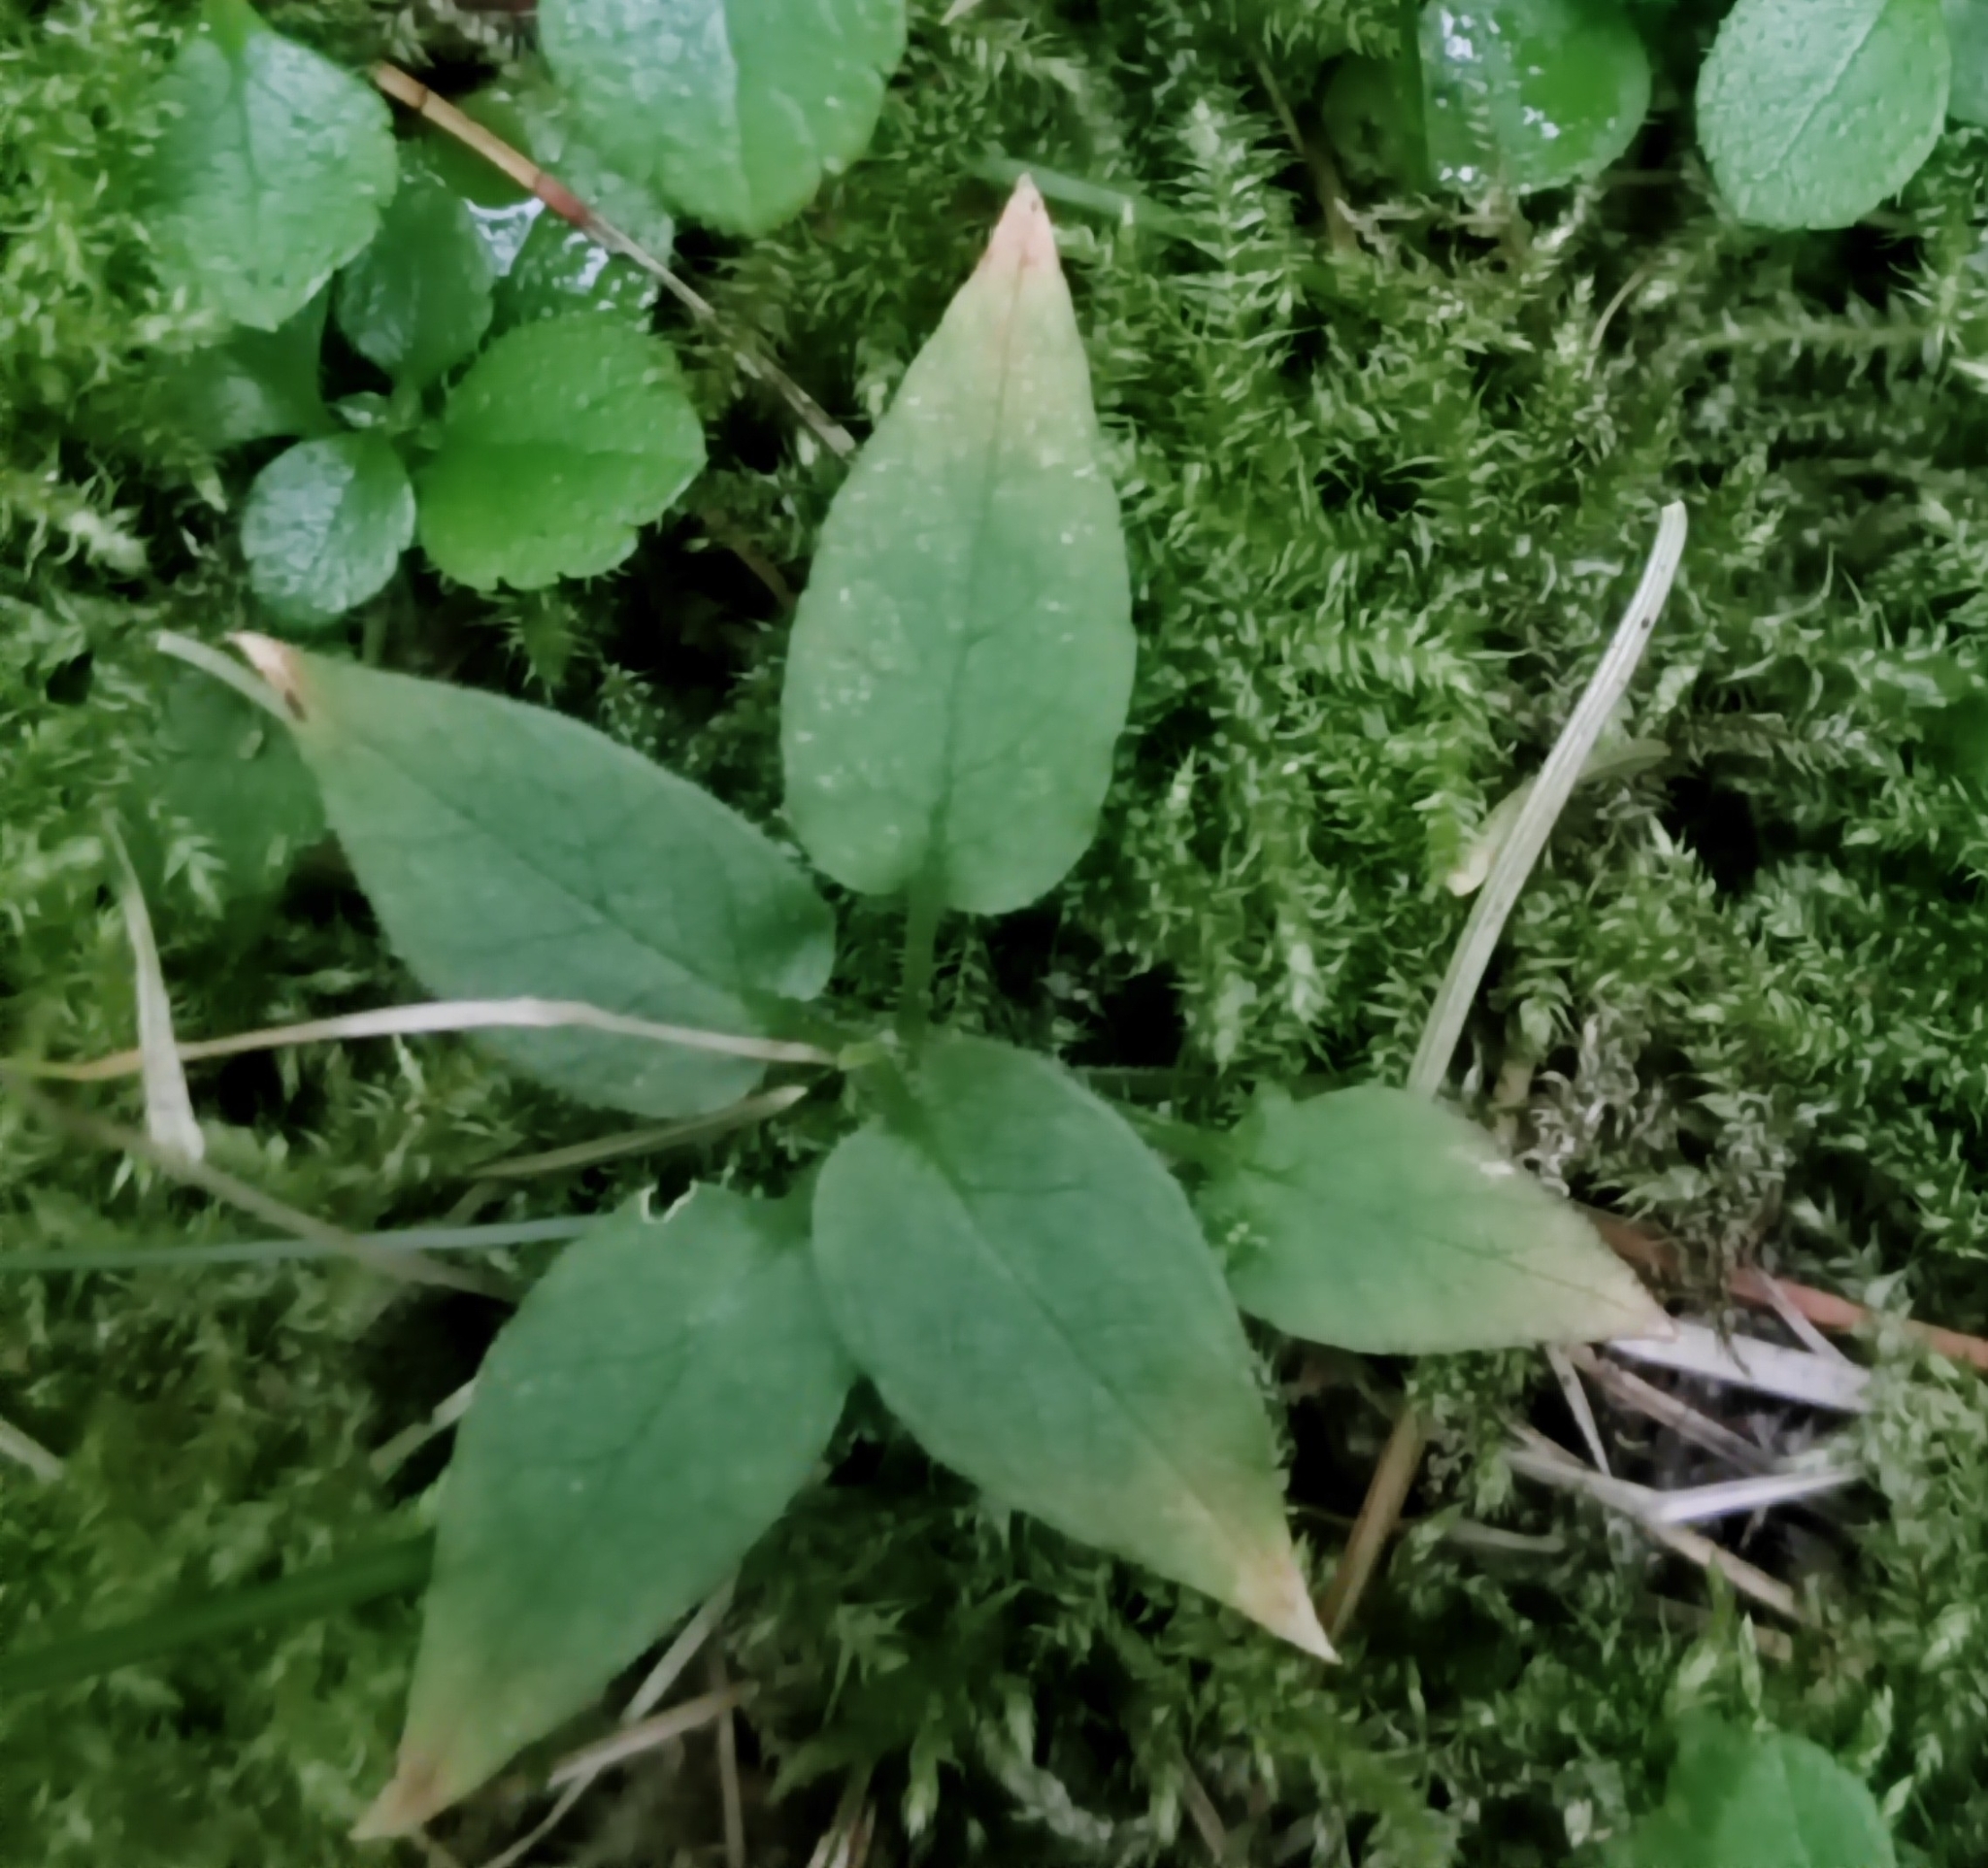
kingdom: Plantae
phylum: Tracheophyta
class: Magnoliopsida
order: Caryophyllales
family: Caryophyllaceae
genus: Stellaria
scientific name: Stellaria bungeana
